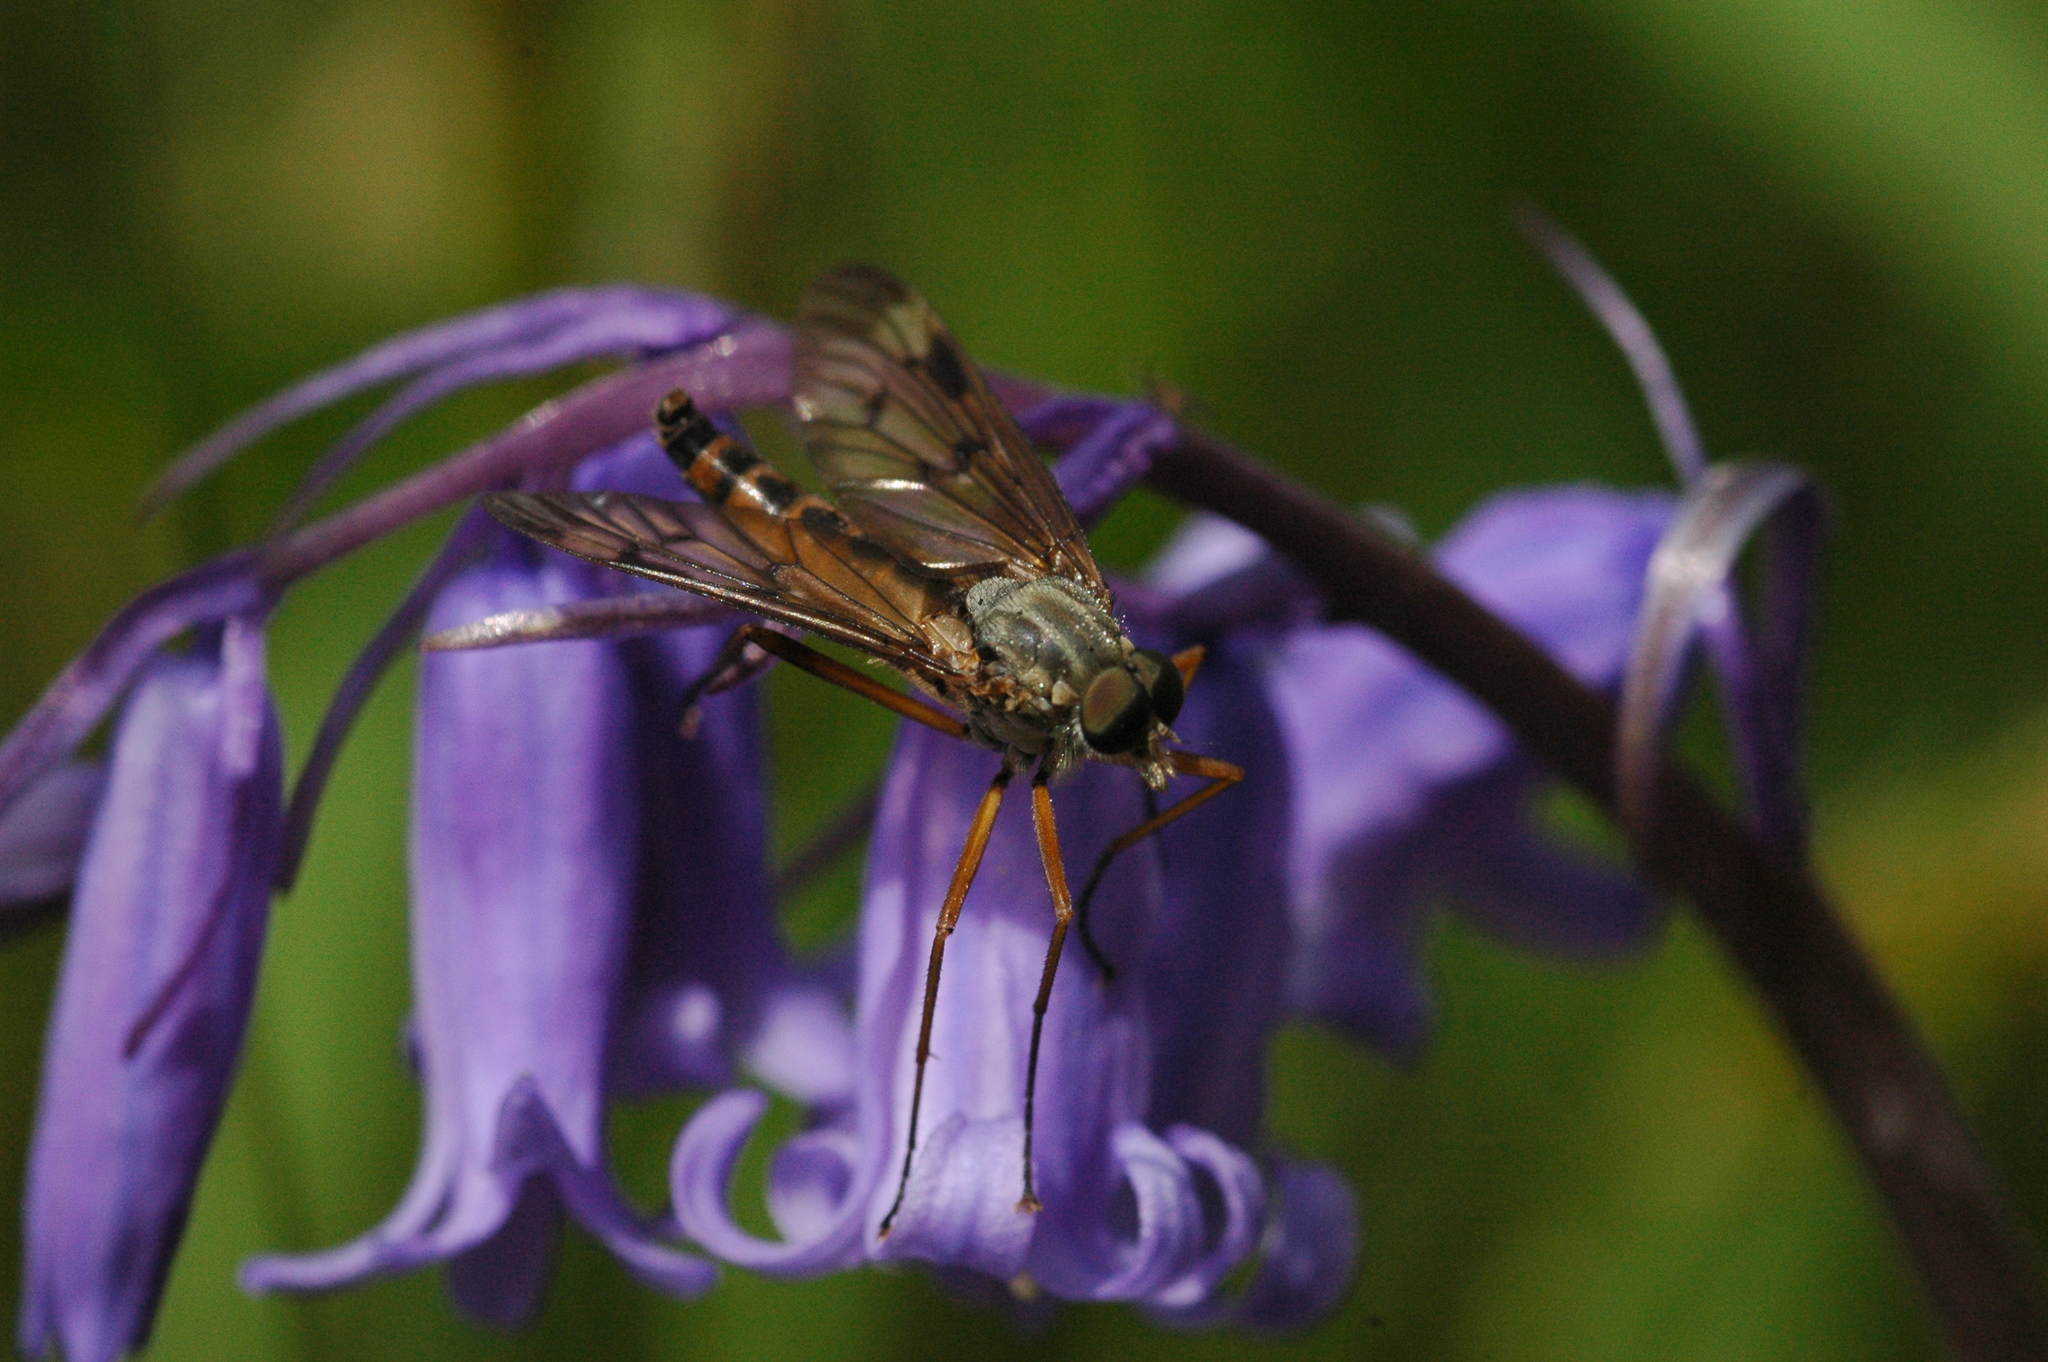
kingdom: Animalia
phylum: Arthropoda
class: Insecta
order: Diptera
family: Rhagionidae
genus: Rhagio
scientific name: Rhagio scolopacea
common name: Downlooker snipefly
